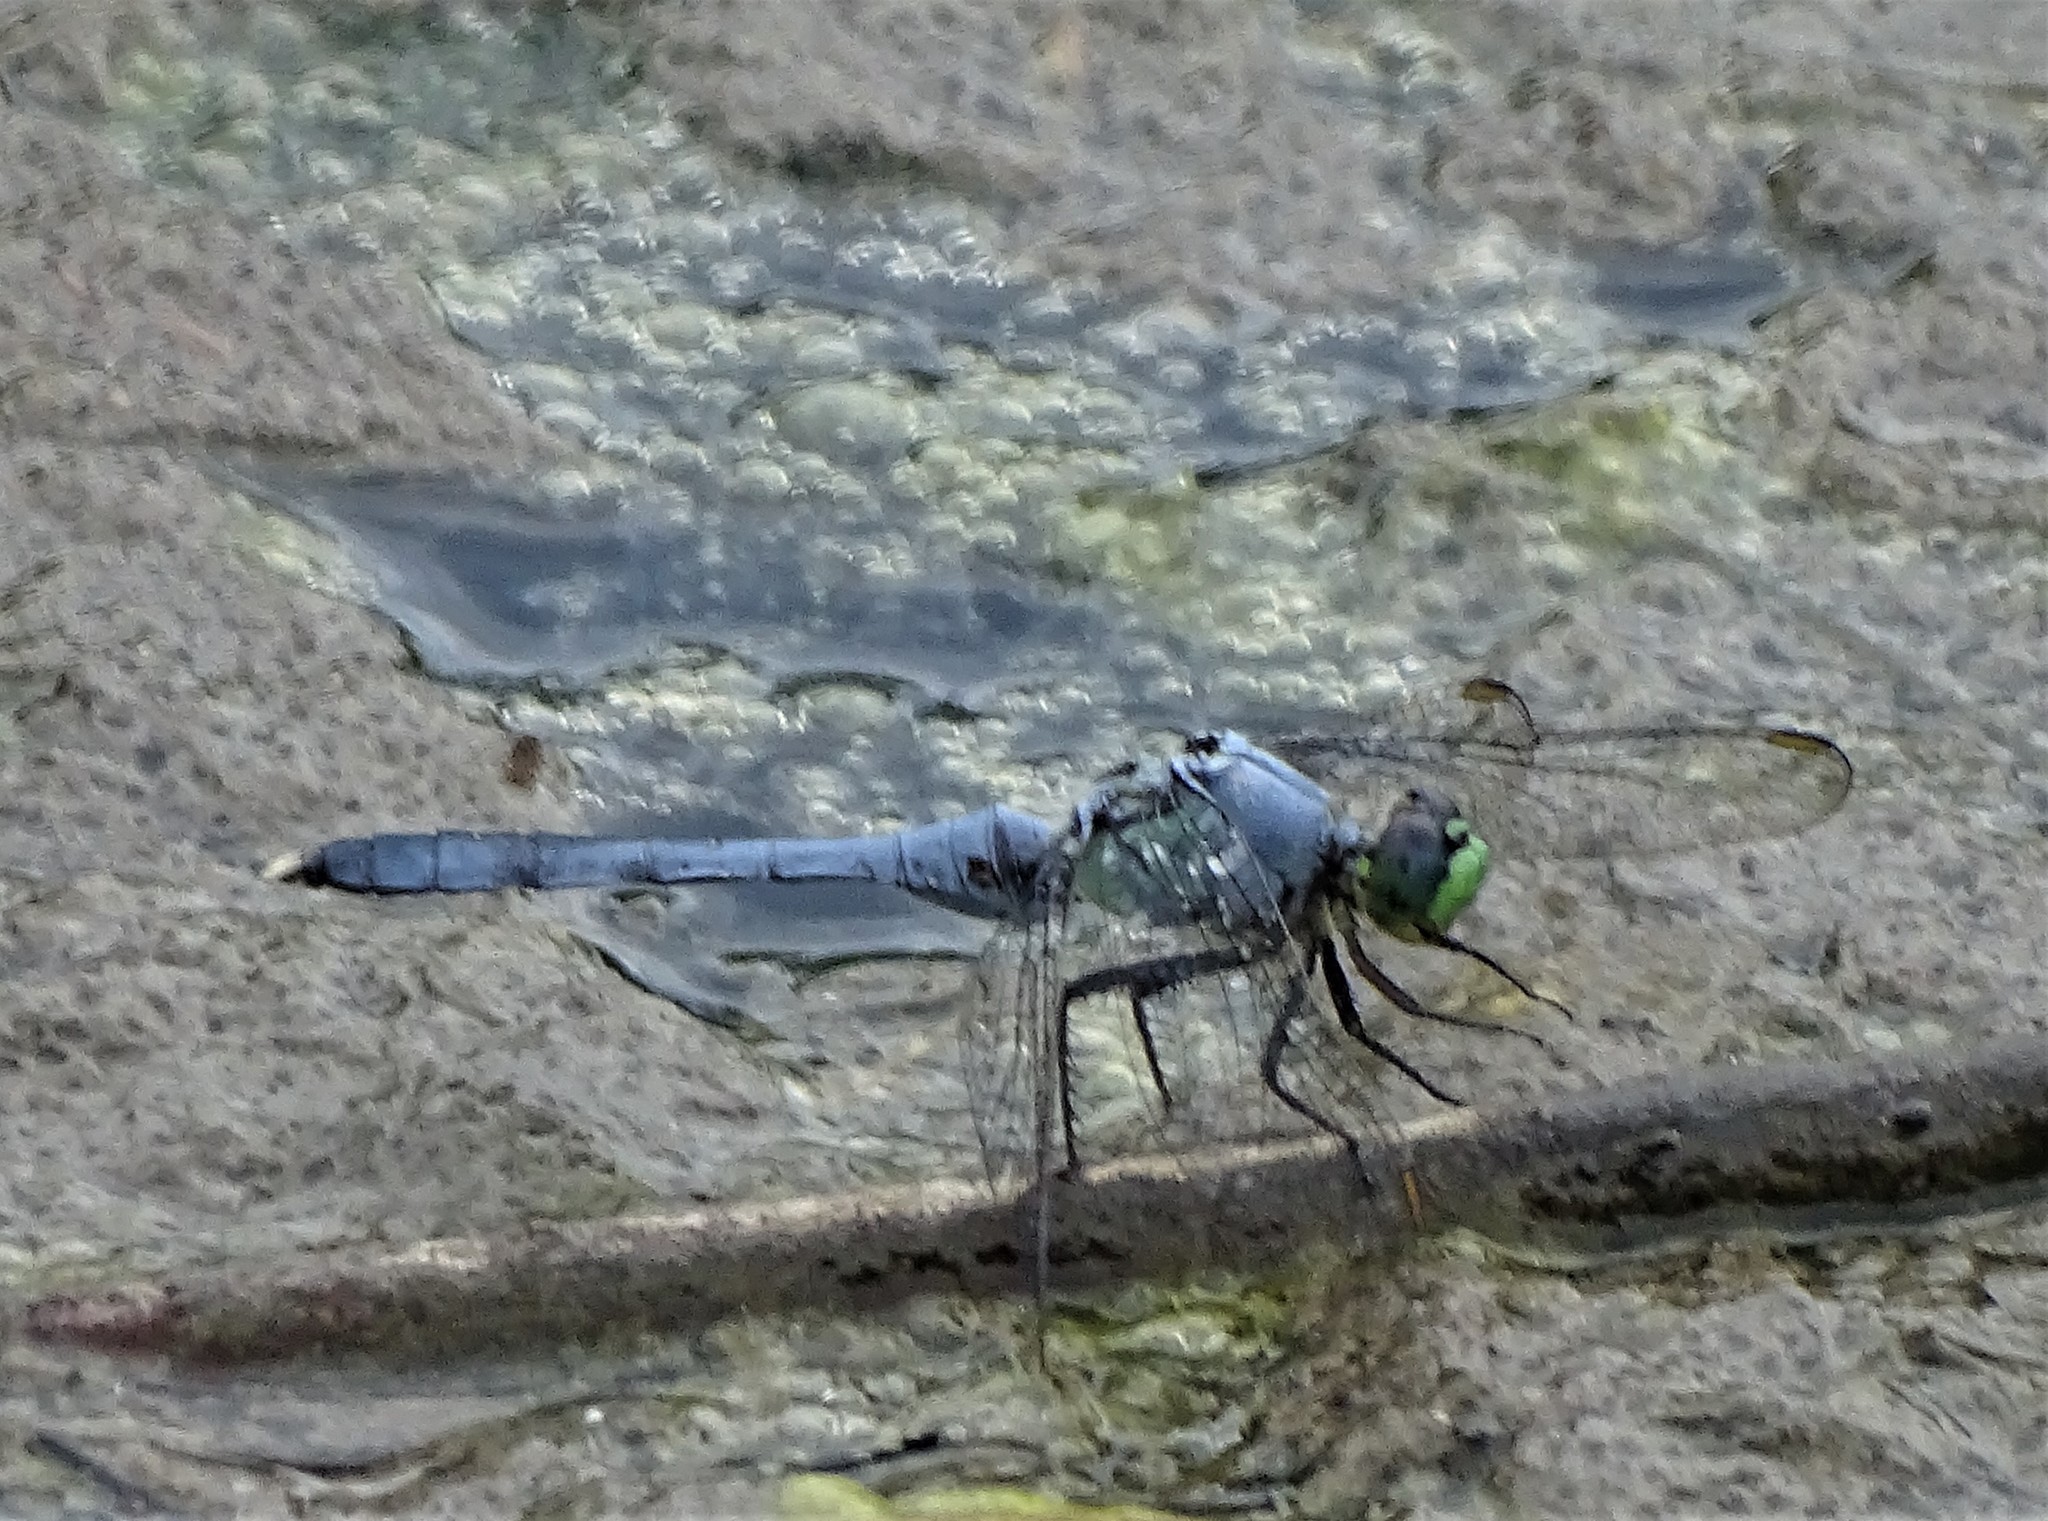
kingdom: Animalia
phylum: Arthropoda
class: Insecta
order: Odonata
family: Libellulidae
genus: Erythemis
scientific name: Erythemis simplicicollis
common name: Eastern pondhawk
